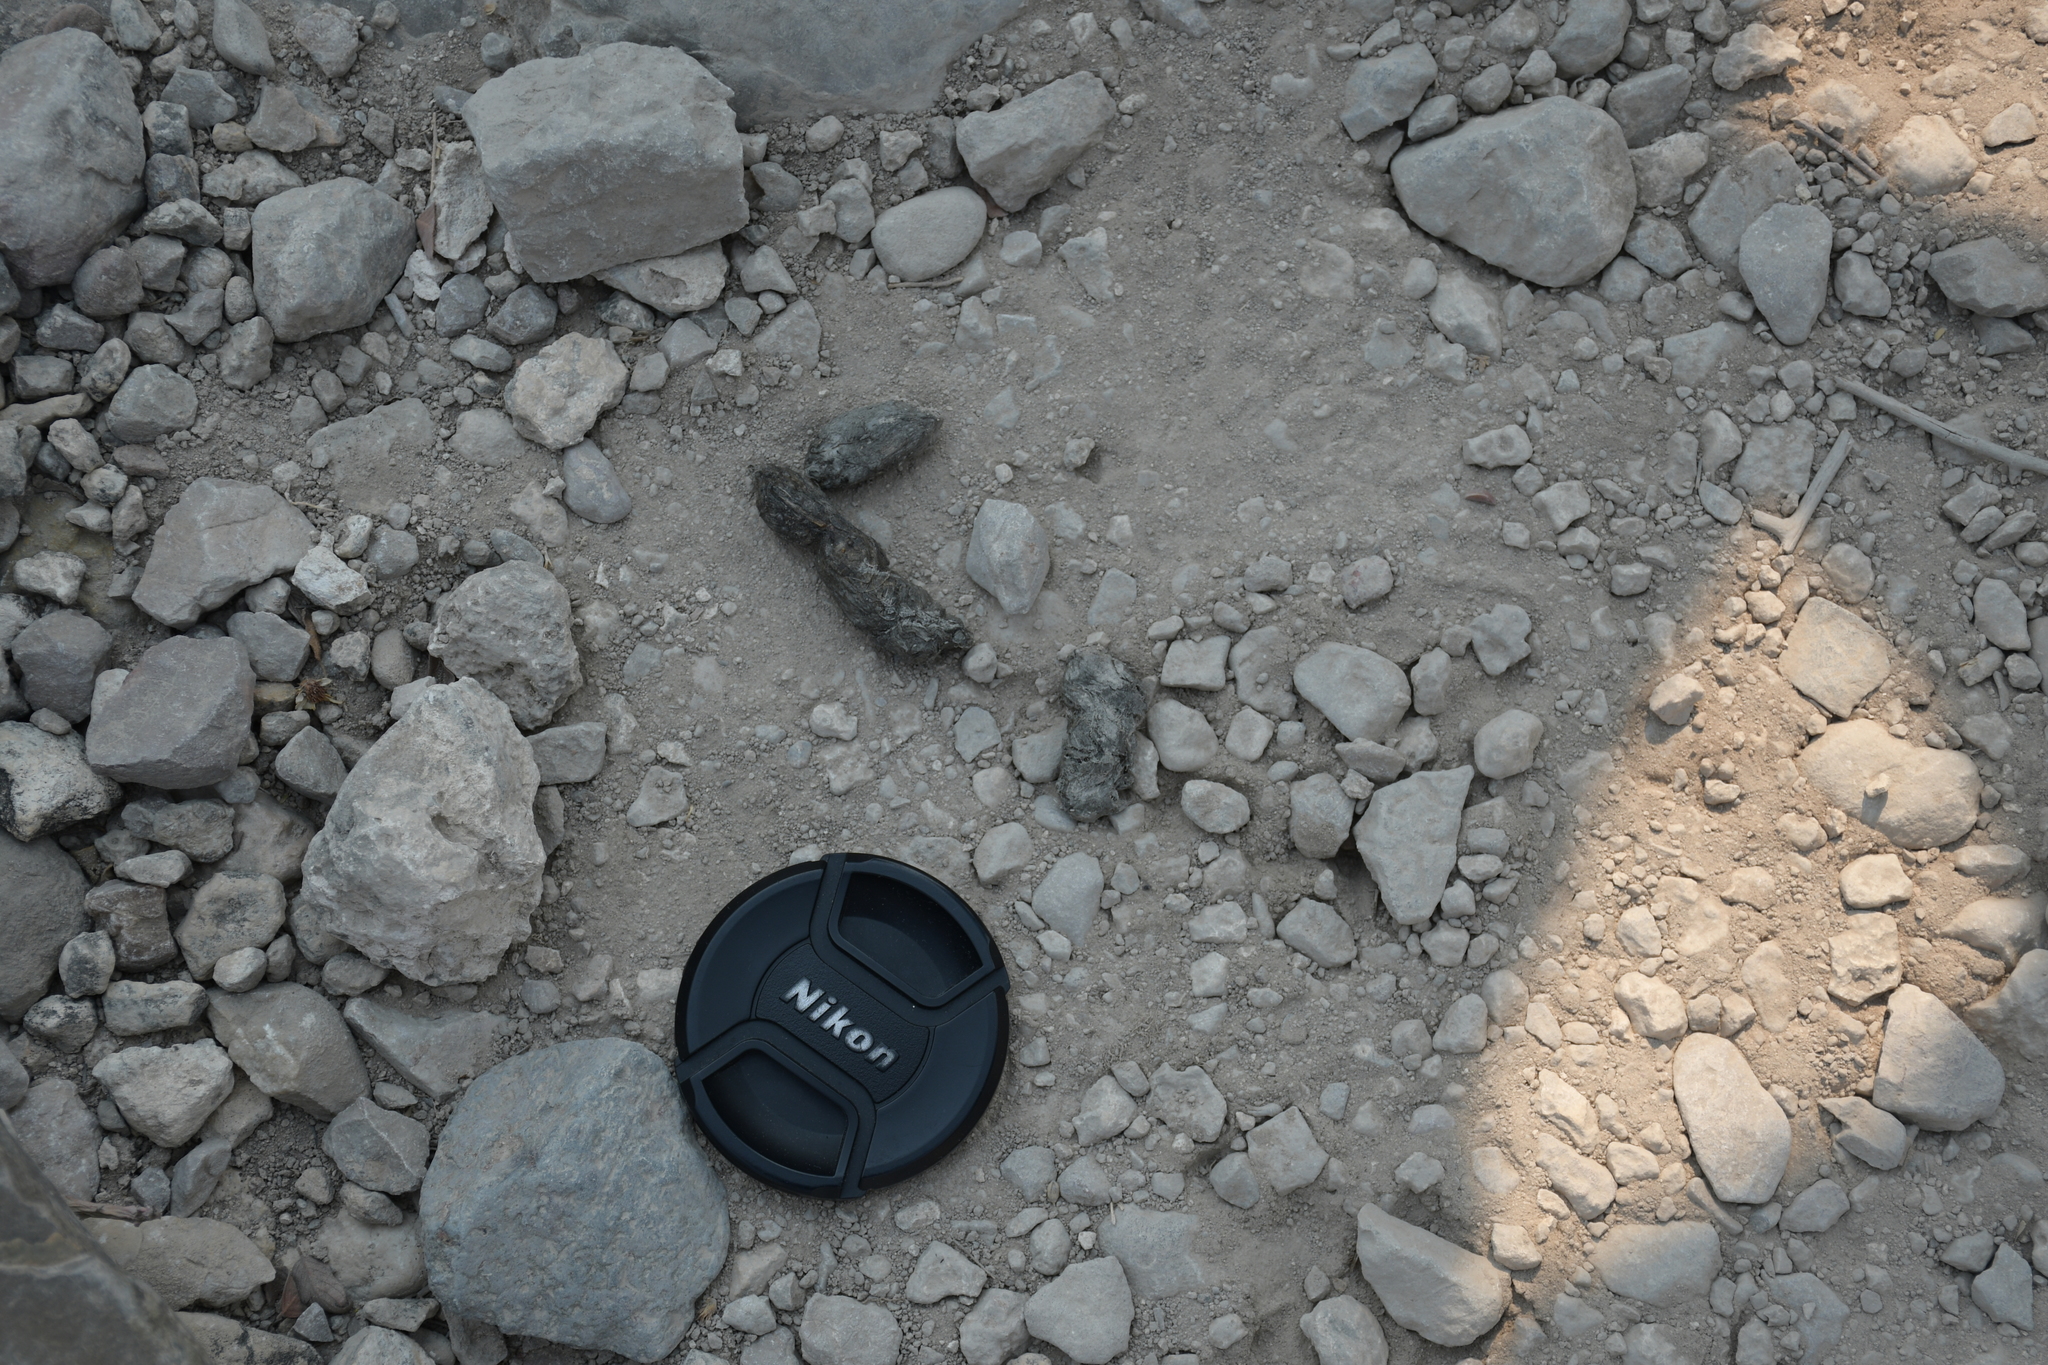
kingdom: Animalia
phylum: Chordata
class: Mammalia
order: Carnivora
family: Canidae
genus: Urocyon
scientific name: Urocyon cinereoargenteus
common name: Gray fox
